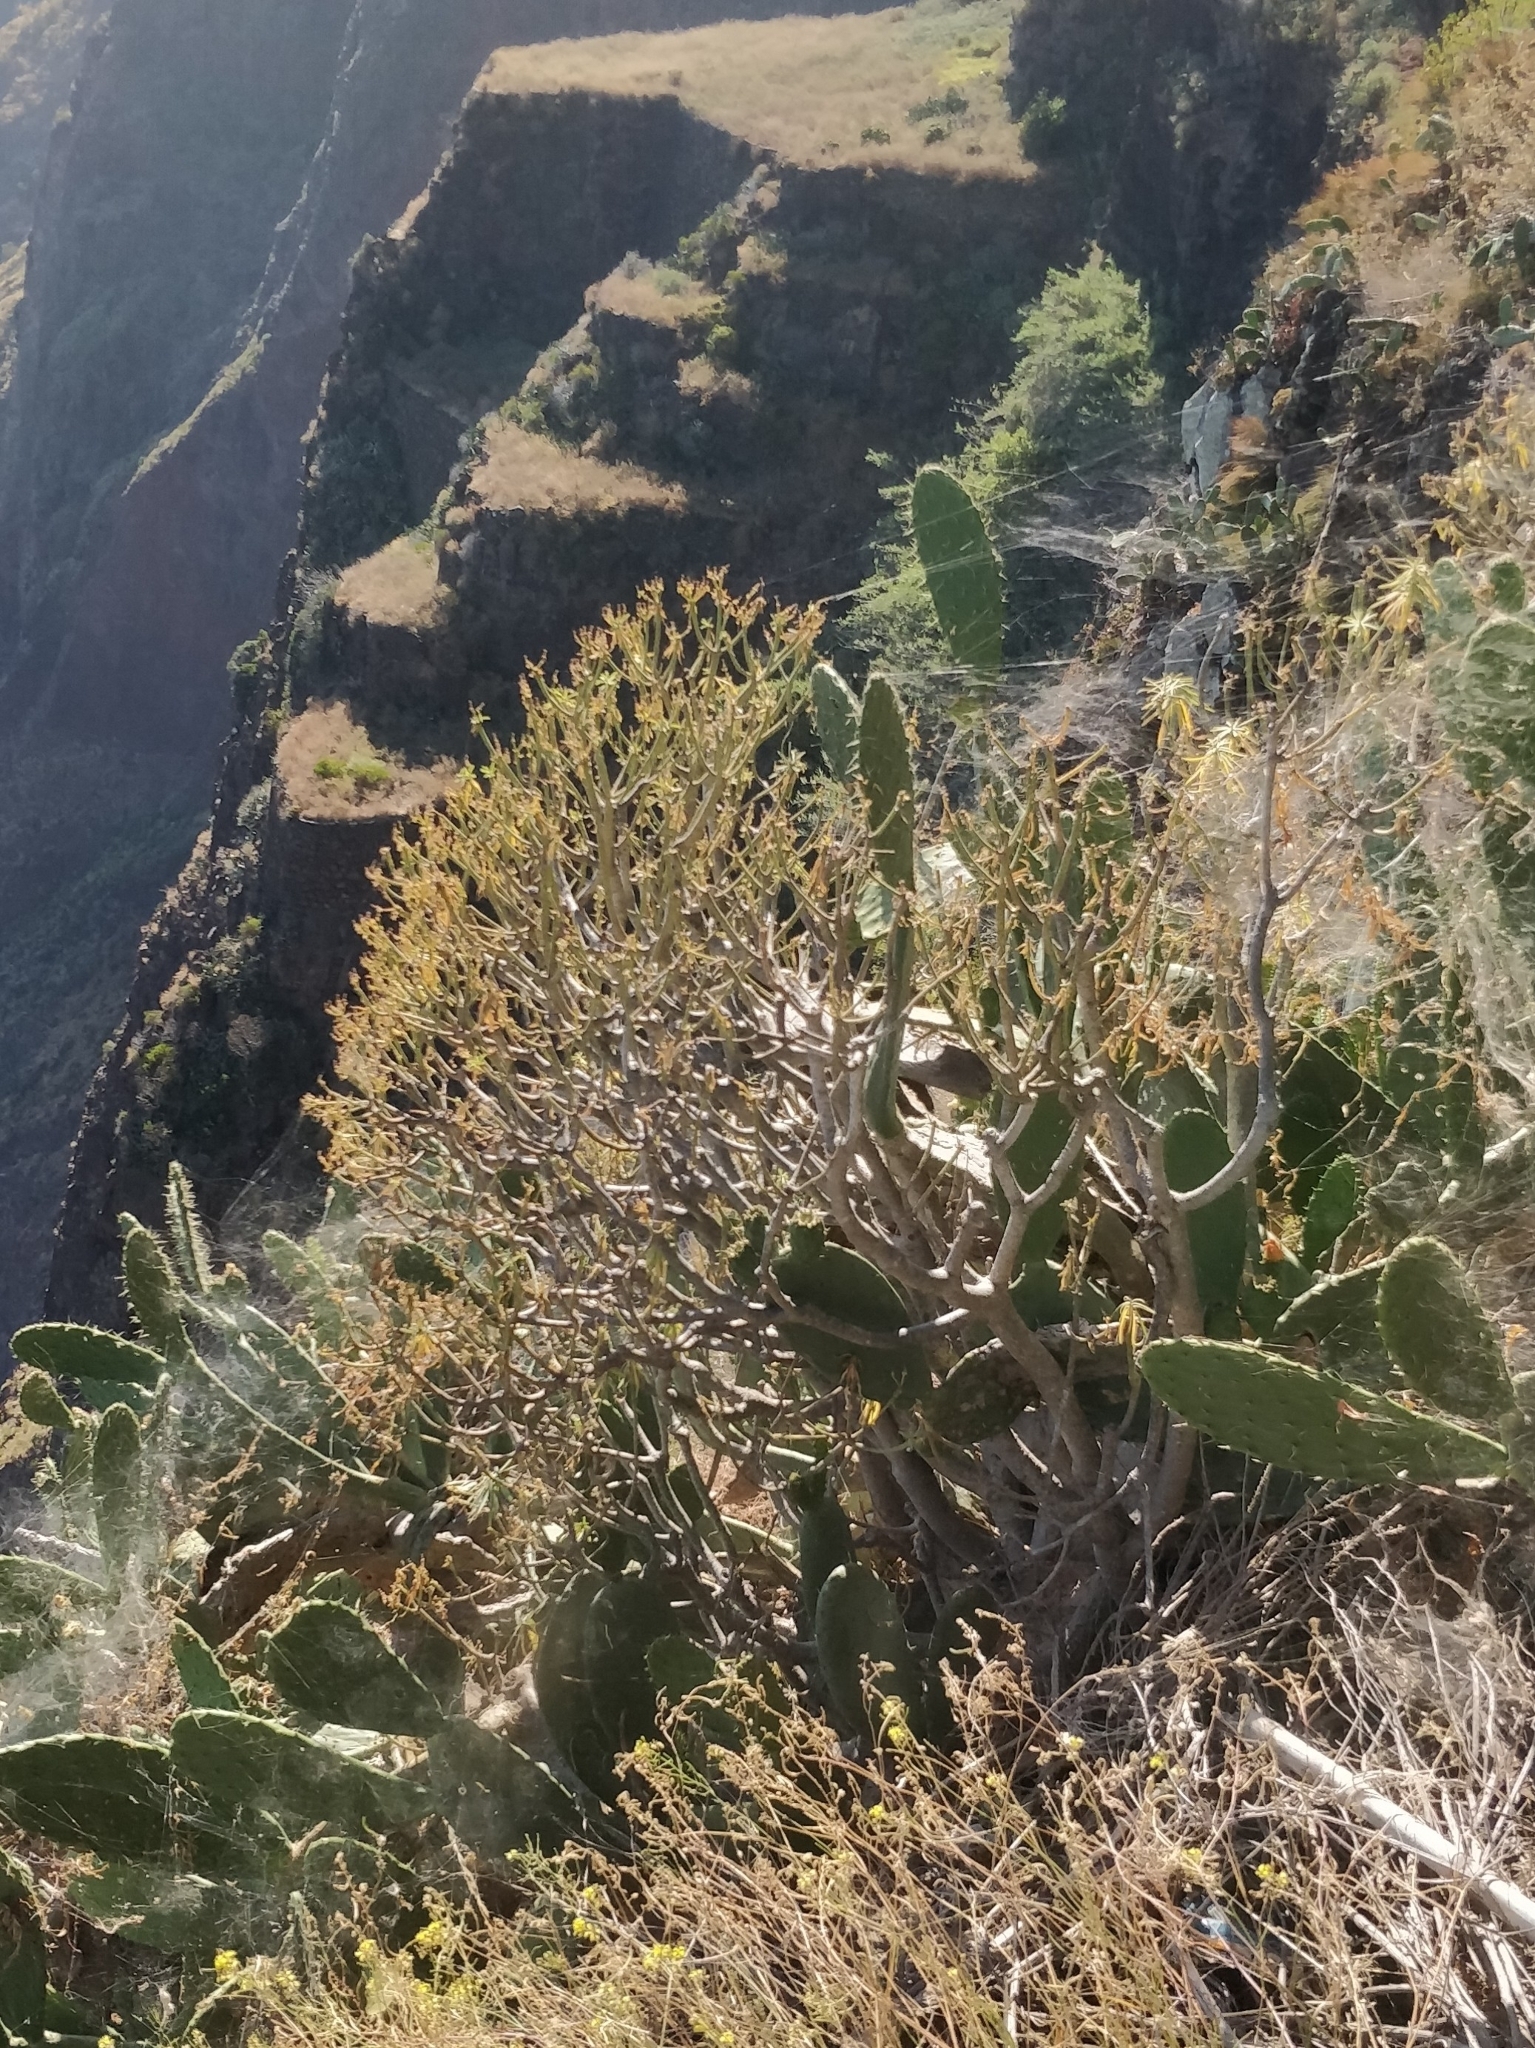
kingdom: Plantae
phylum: Tracheophyta
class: Magnoliopsida
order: Malpighiales
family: Euphorbiaceae
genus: Euphorbia
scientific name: Euphorbia piscatoria
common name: Fish-stunning spurge
